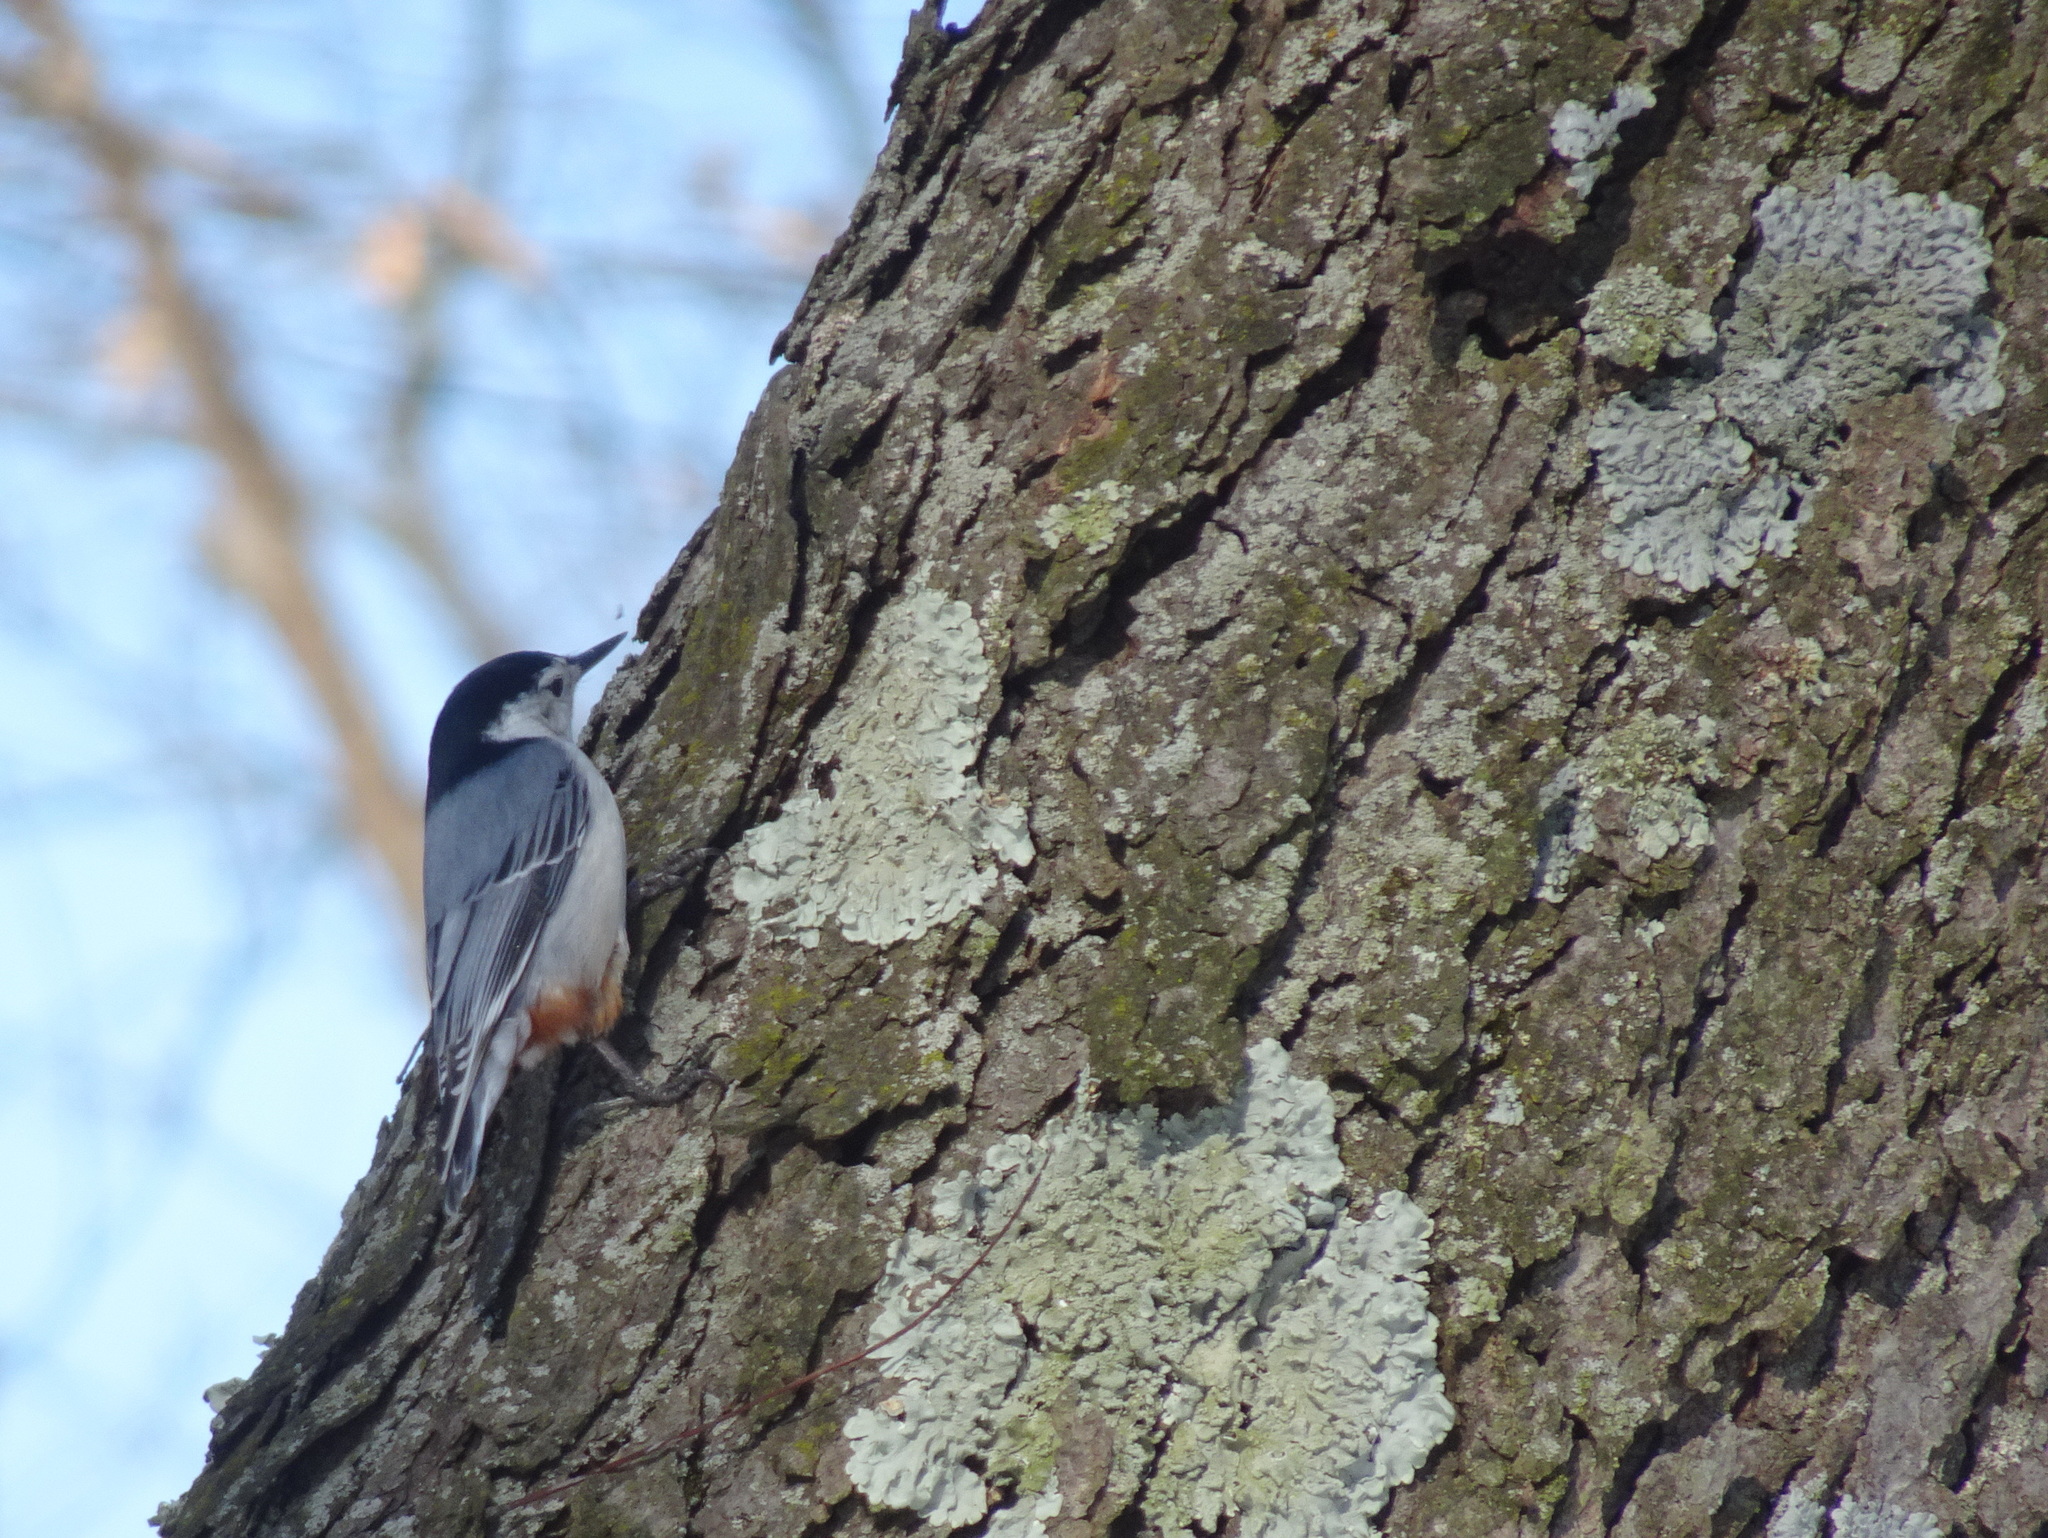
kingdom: Animalia
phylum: Chordata
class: Aves
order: Passeriformes
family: Sittidae
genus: Sitta
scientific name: Sitta carolinensis
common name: White-breasted nuthatch
